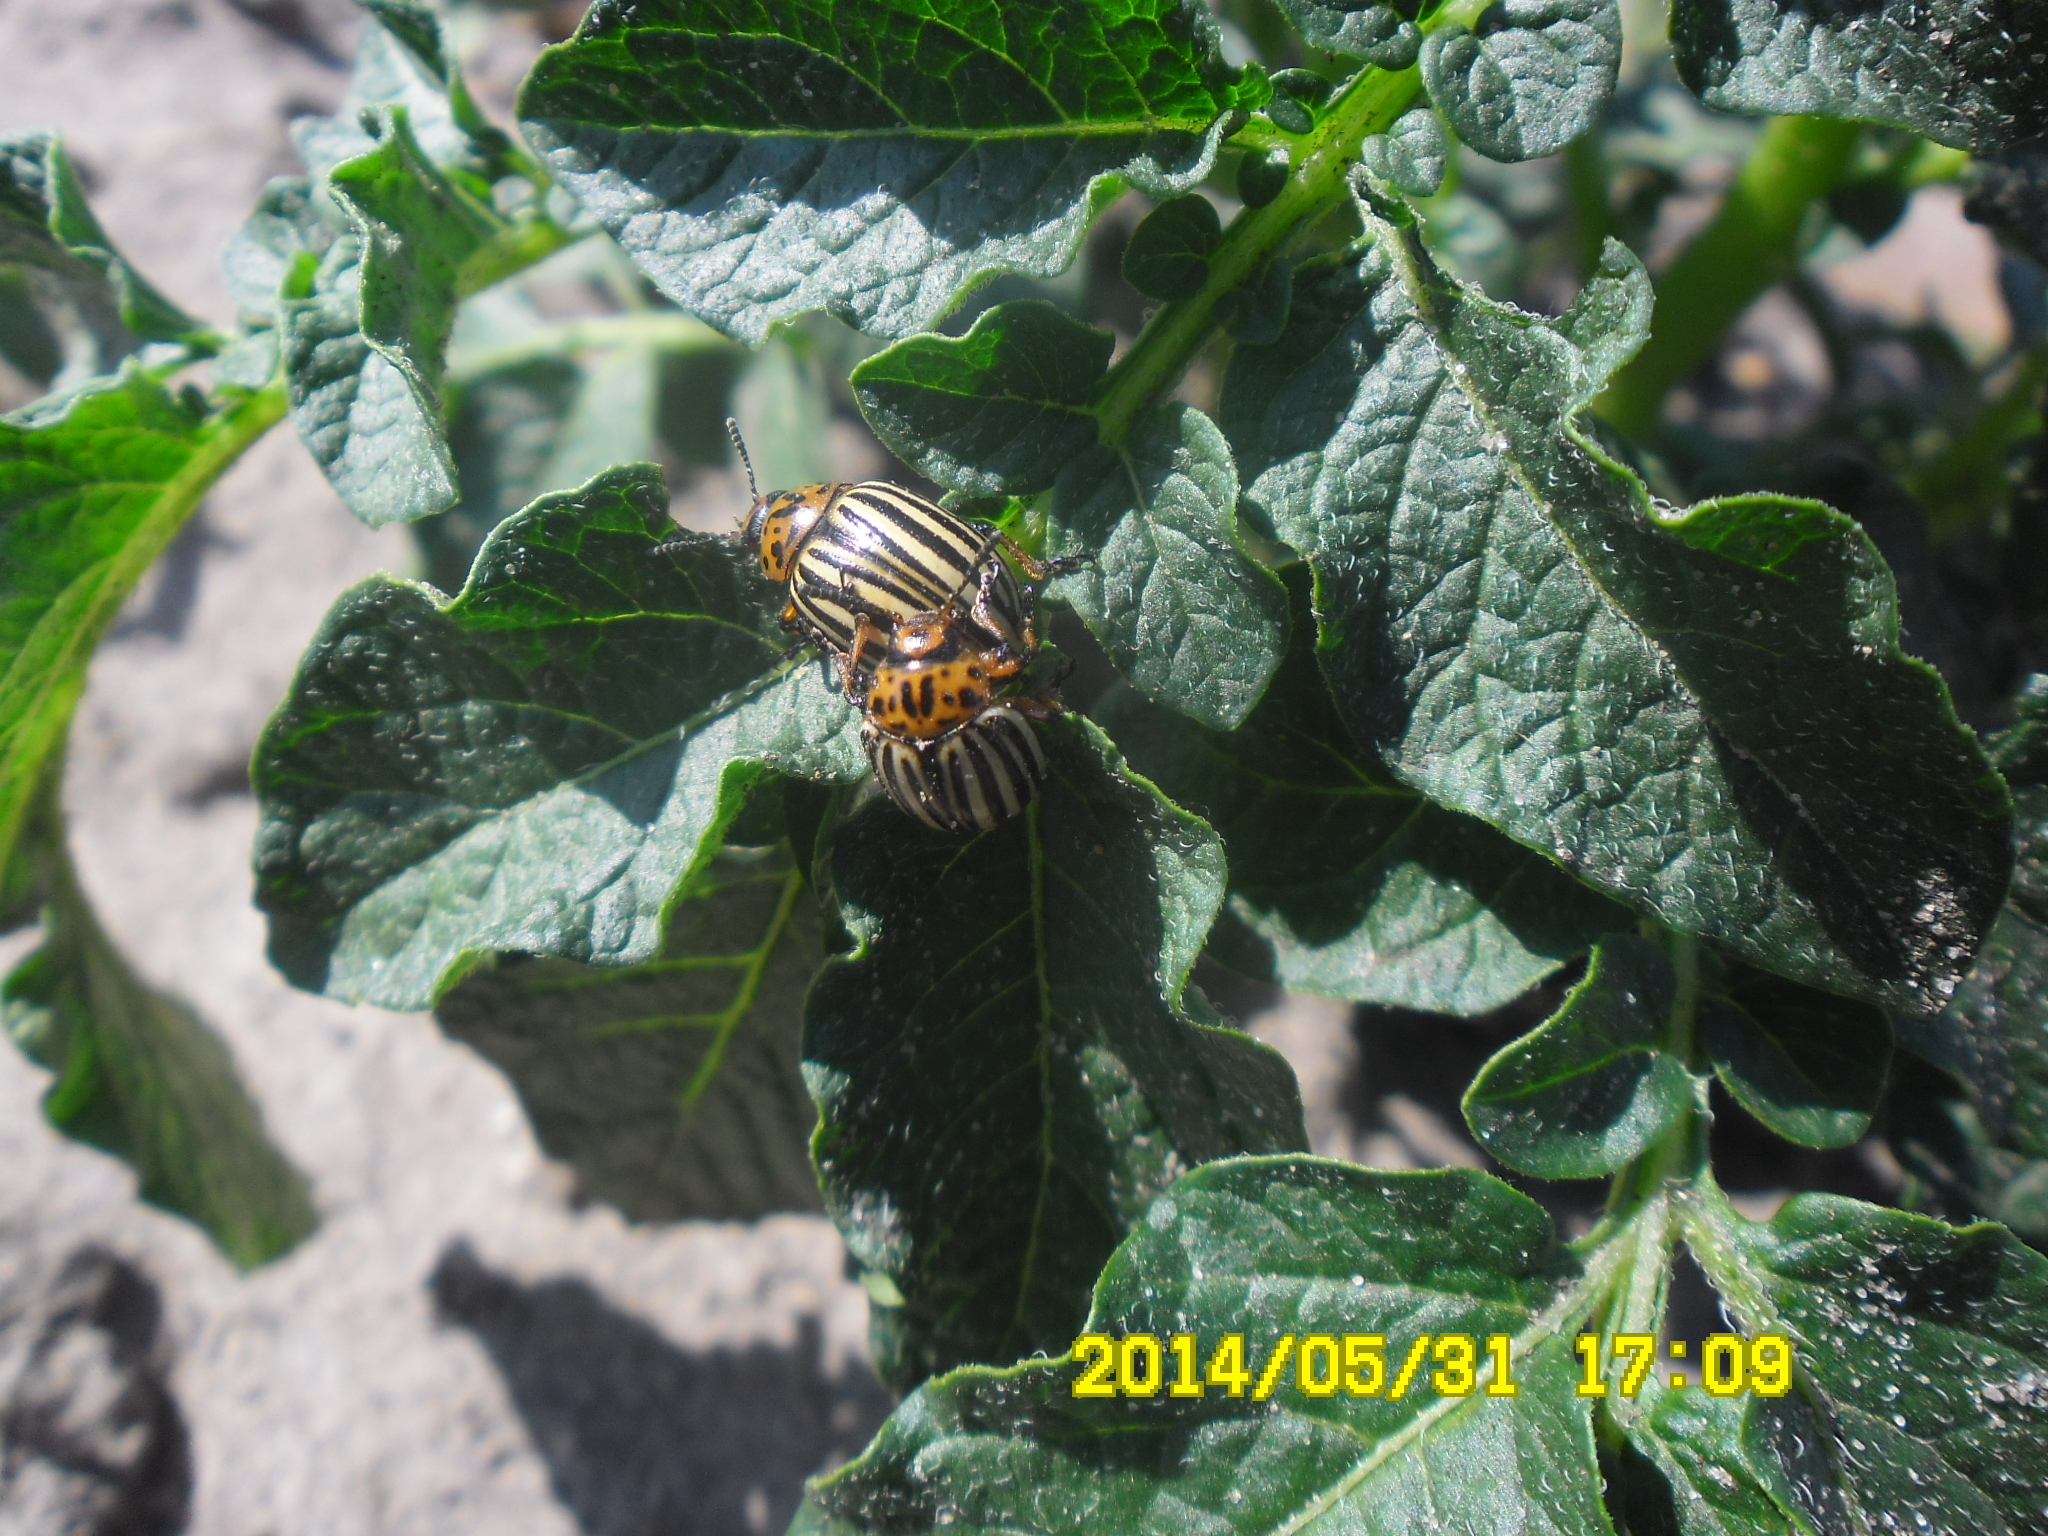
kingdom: Animalia
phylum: Arthropoda
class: Insecta
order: Coleoptera
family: Chrysomelidae
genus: Leptinotarsa
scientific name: Leptinotarsa decemlineata
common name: Colorado potato beetle
